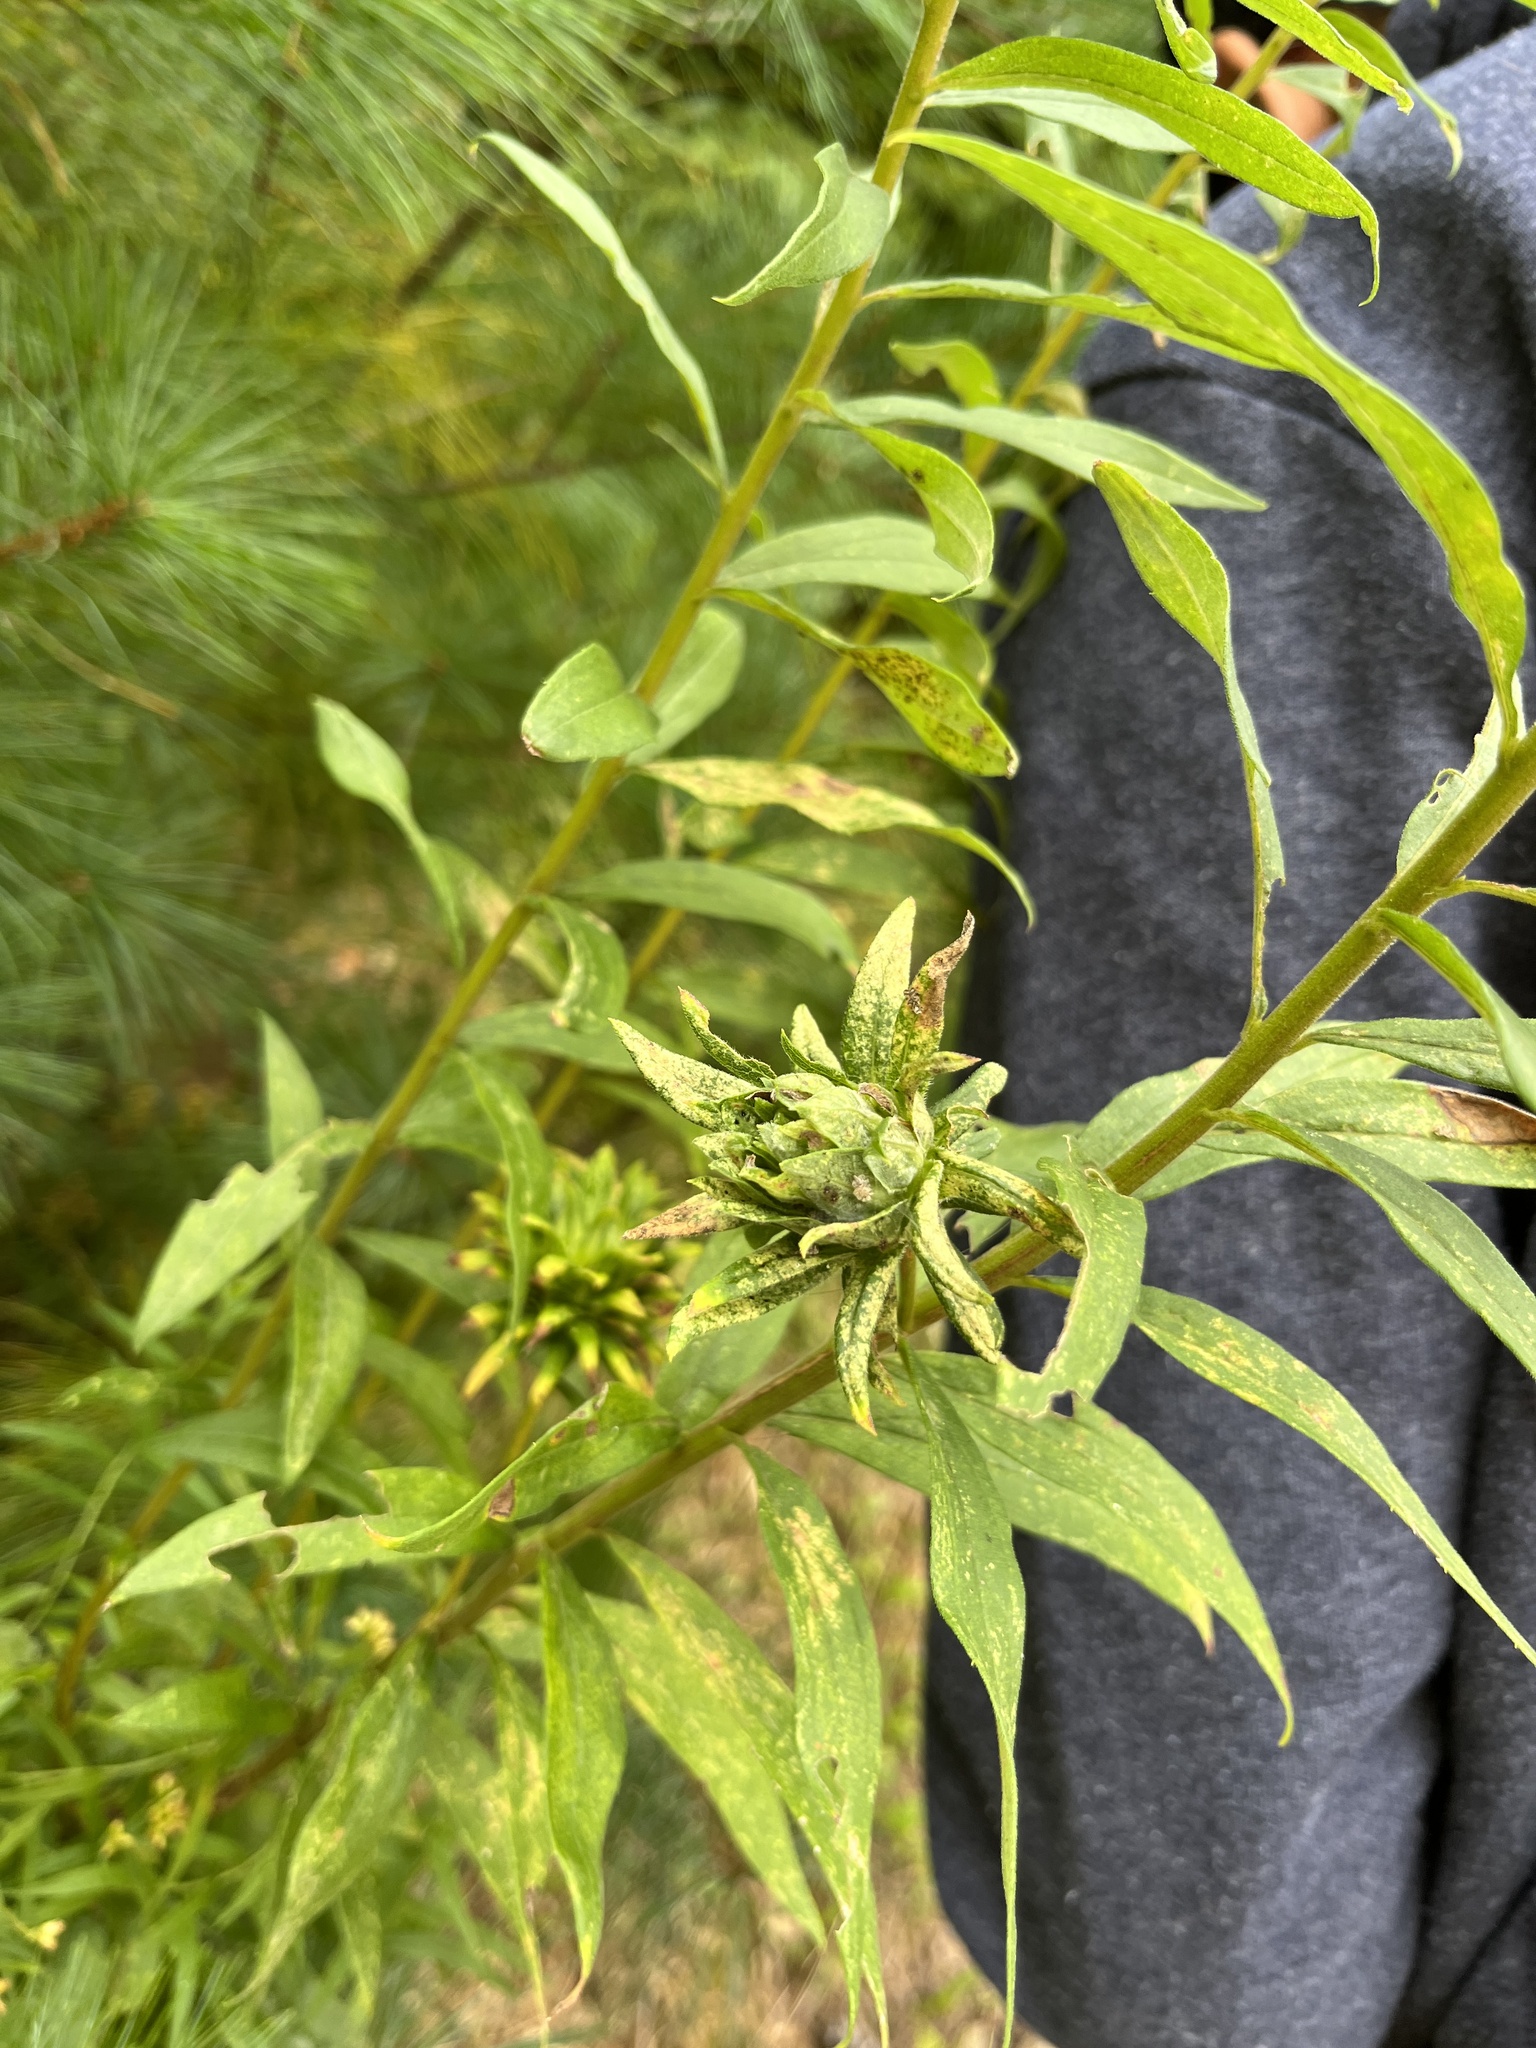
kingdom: Animalia
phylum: Arthropoda
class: Insecta
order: Diptera
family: Tephritidae
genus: Procecidochares
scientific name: Procecidochares atra
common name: Goldenrod brussels sprout gall fly
